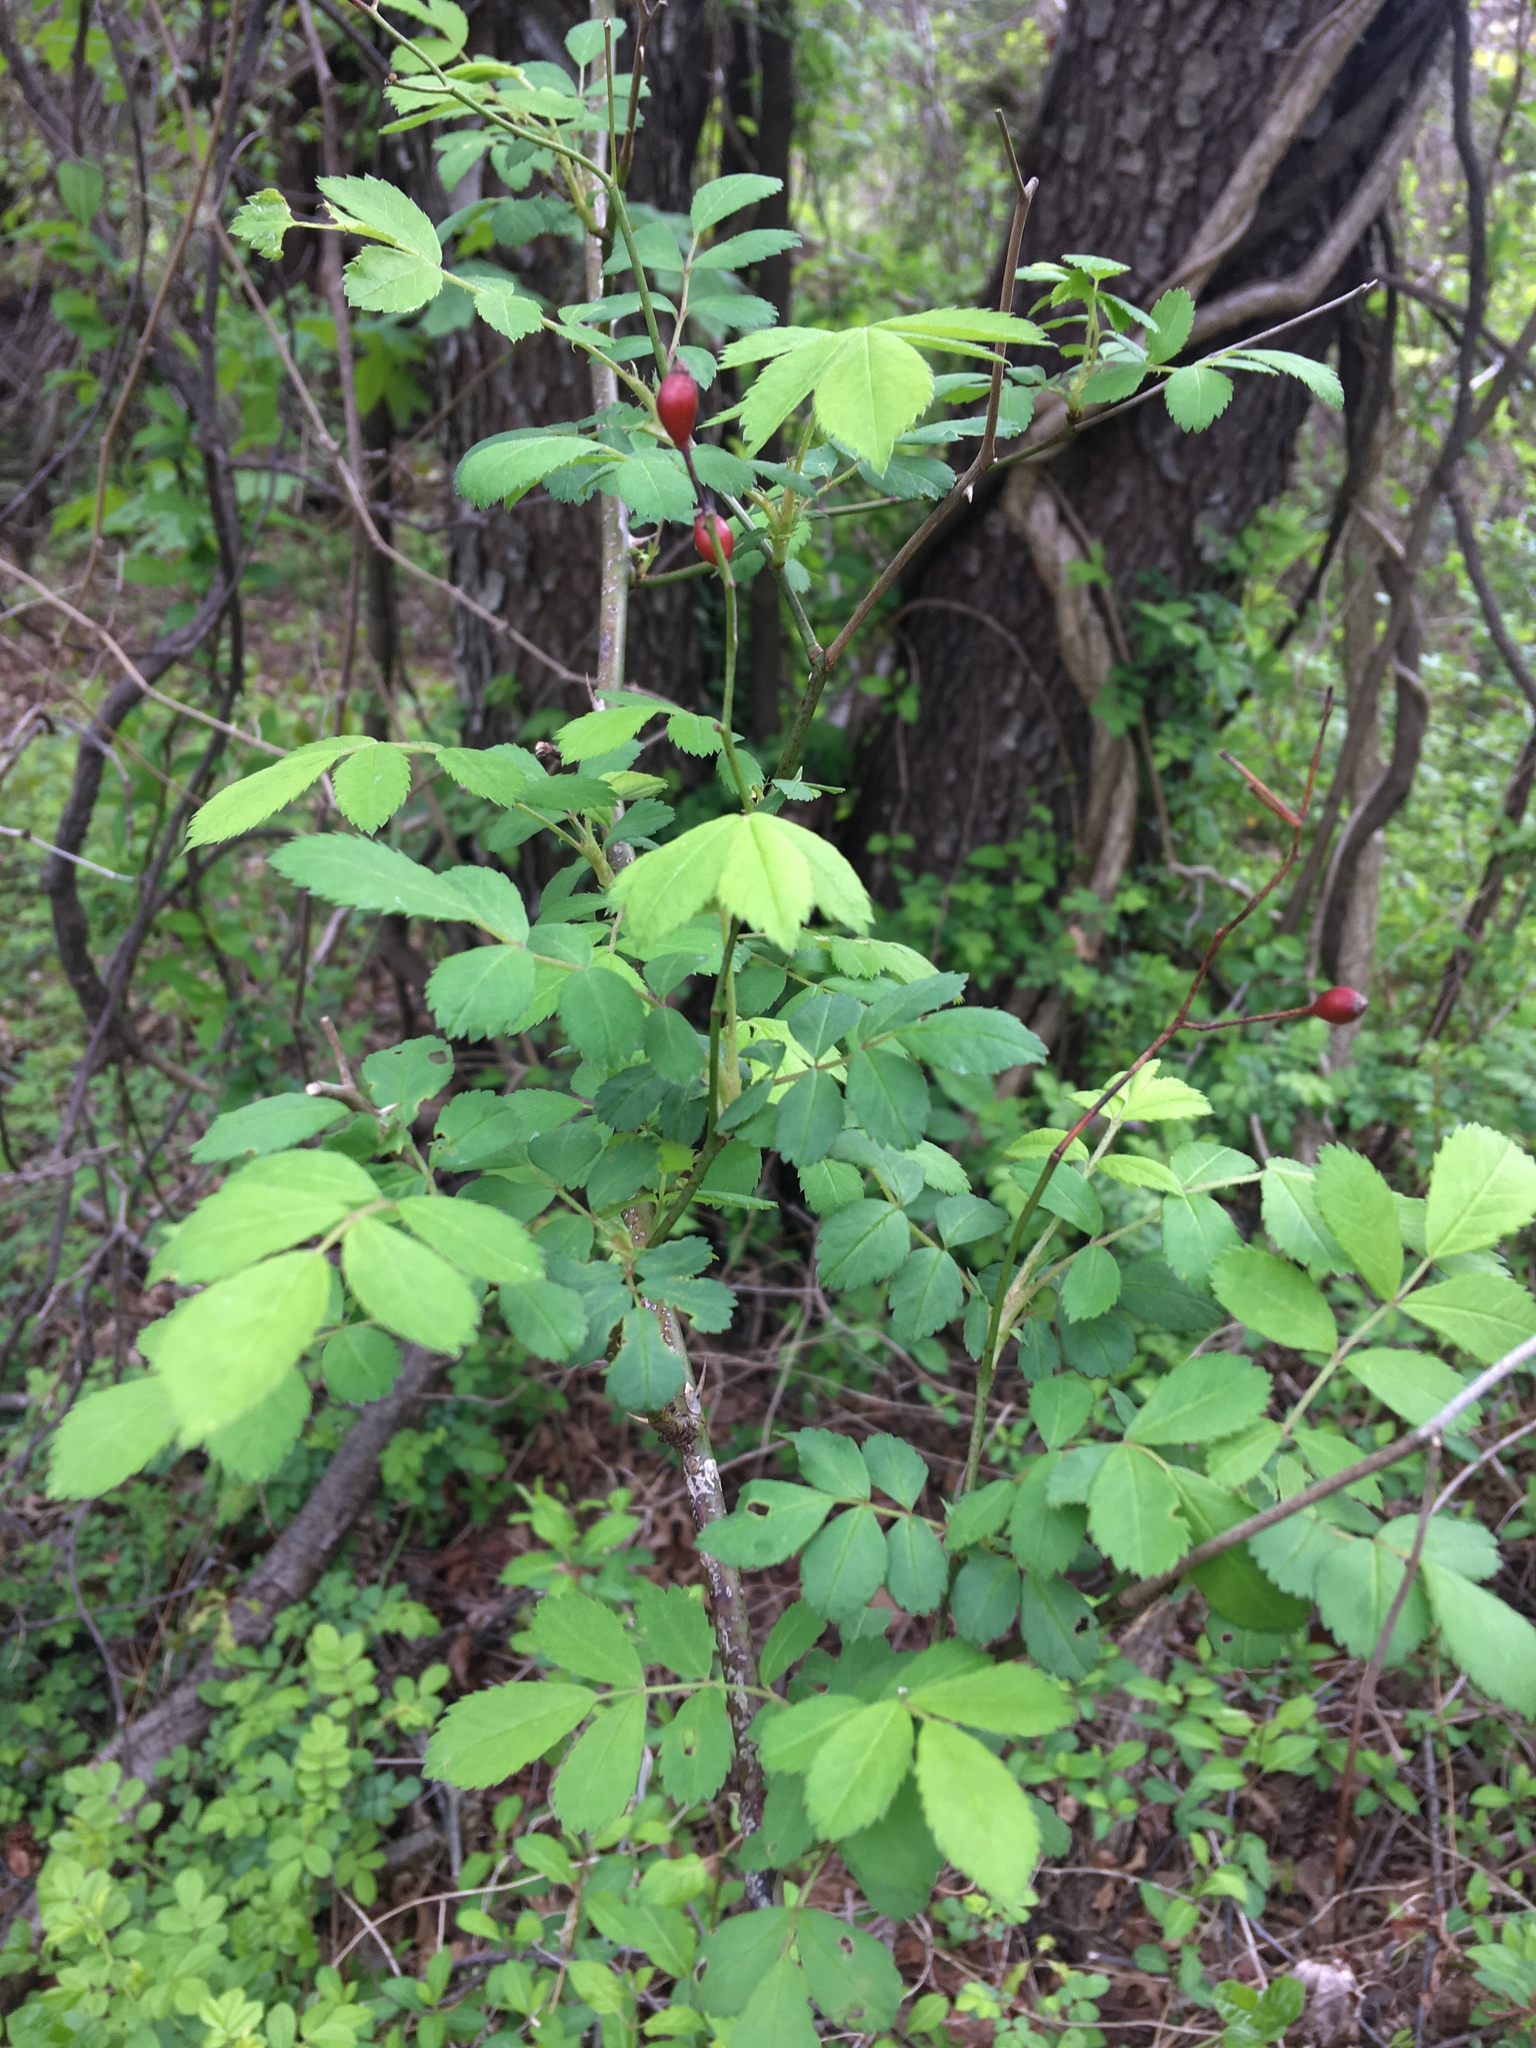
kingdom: Plantae
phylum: Tracheophyta
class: Magnoliopsida
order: Rosales
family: Rosaceae
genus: Rosa
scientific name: Rosa multiflora
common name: Multiflora rose
